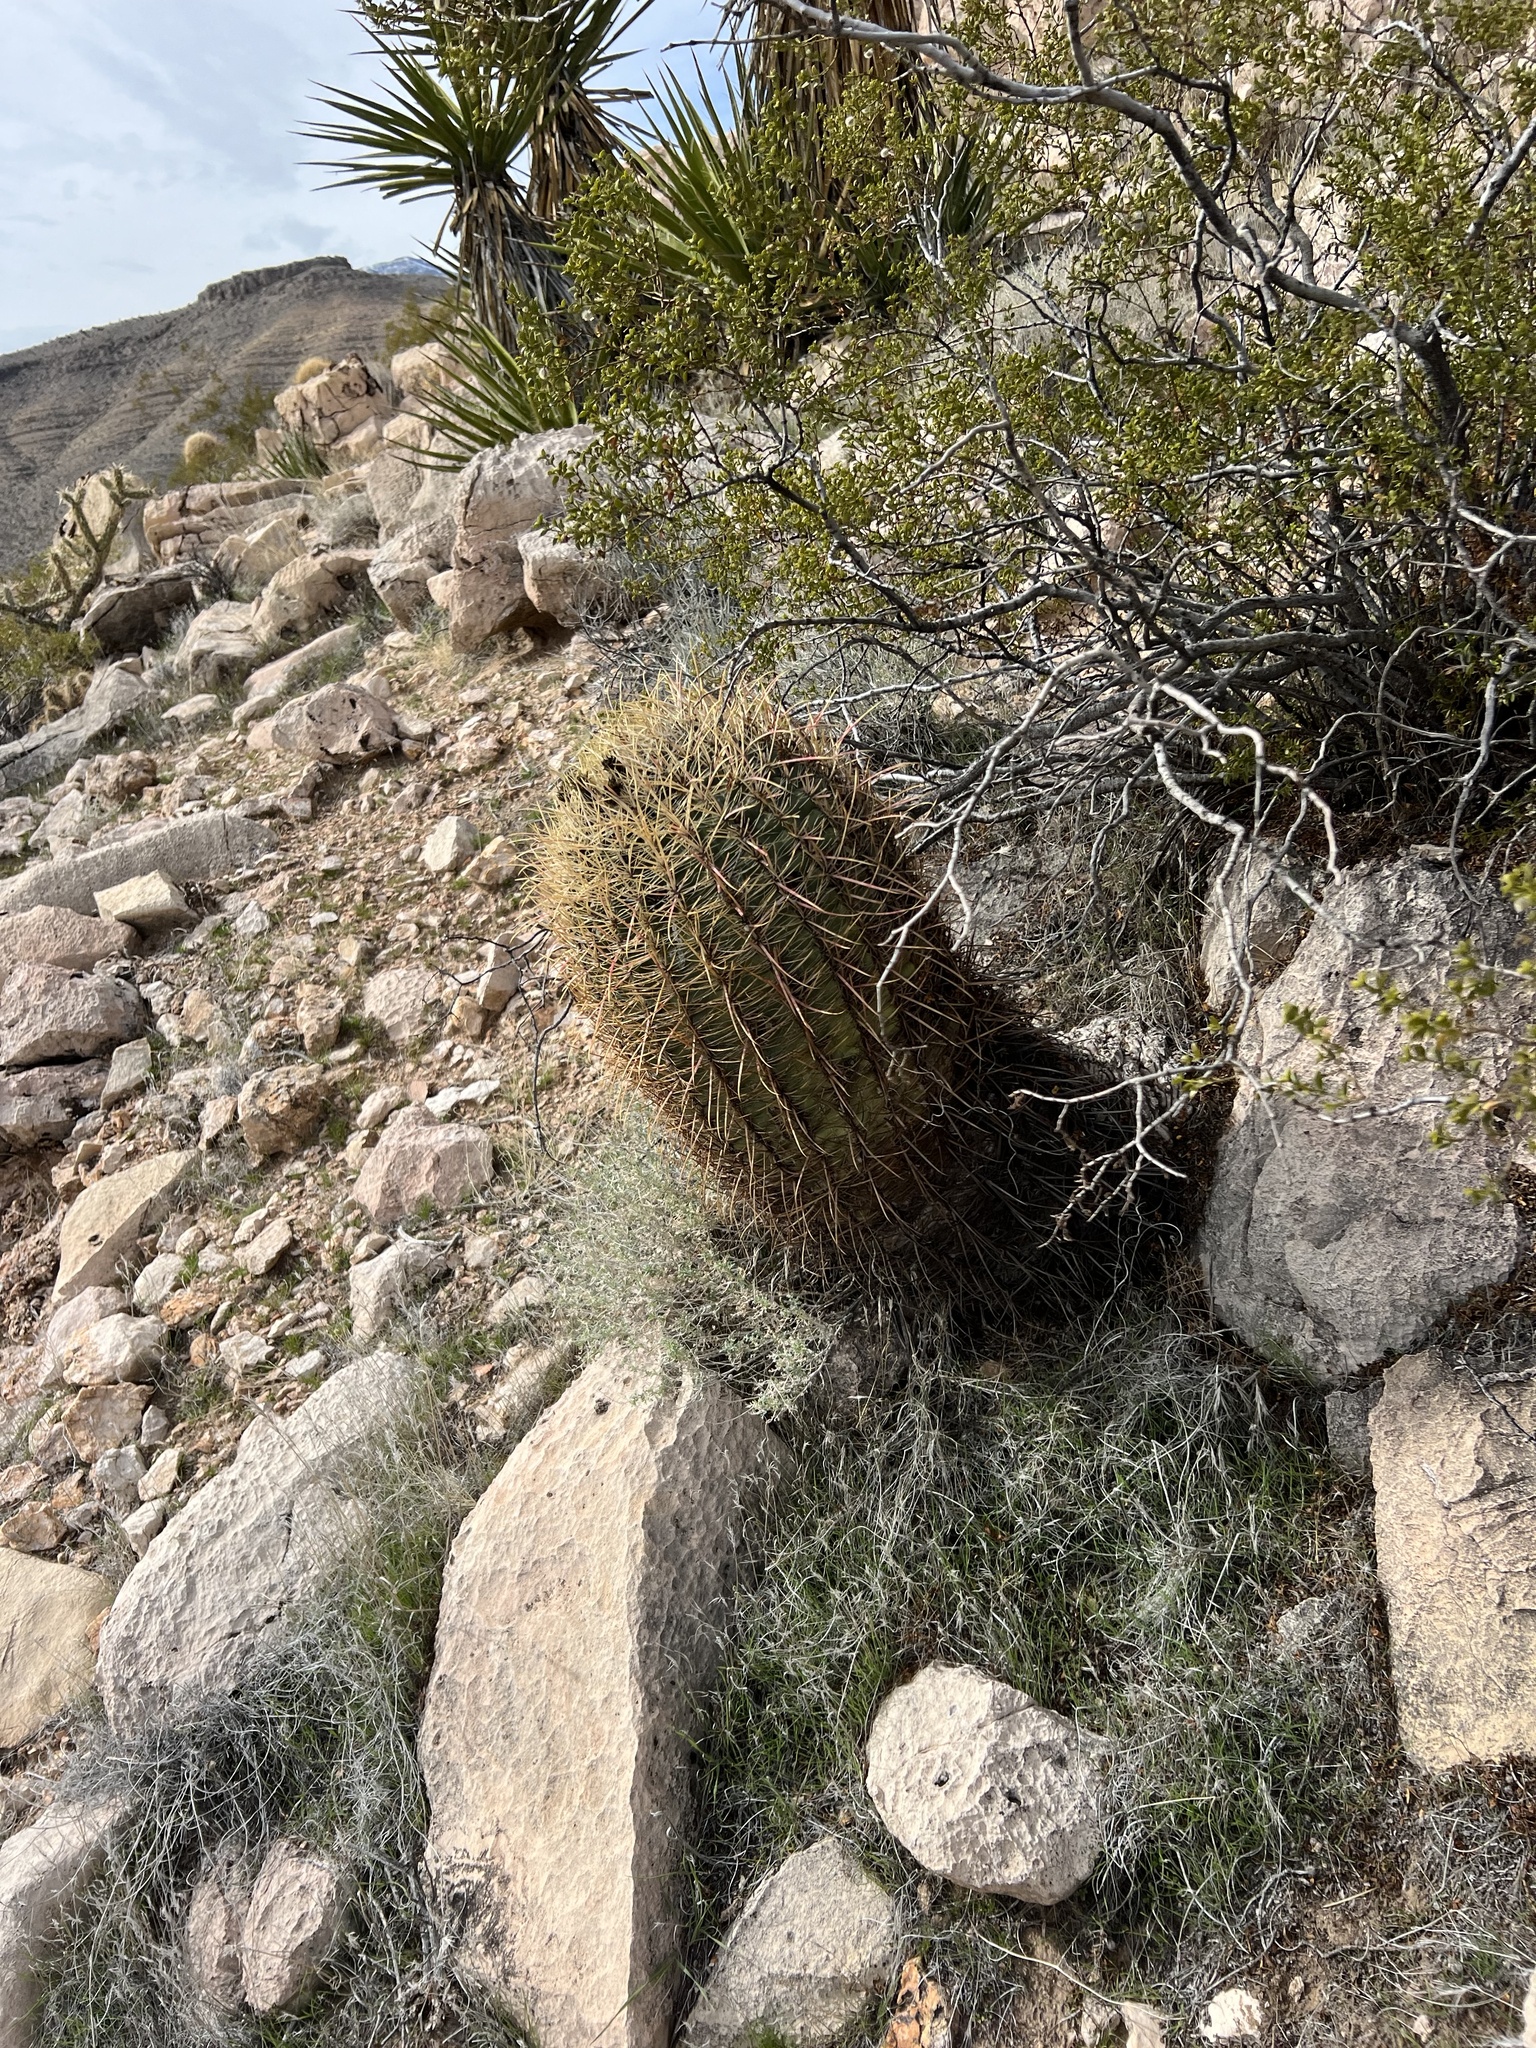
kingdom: Plantae
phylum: Tracheophyta
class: Magnoliopsida
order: Caryophyllales
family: Cactaceae
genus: Ferocactus
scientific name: Ferocactus cylindraceus
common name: California barrel cactus
